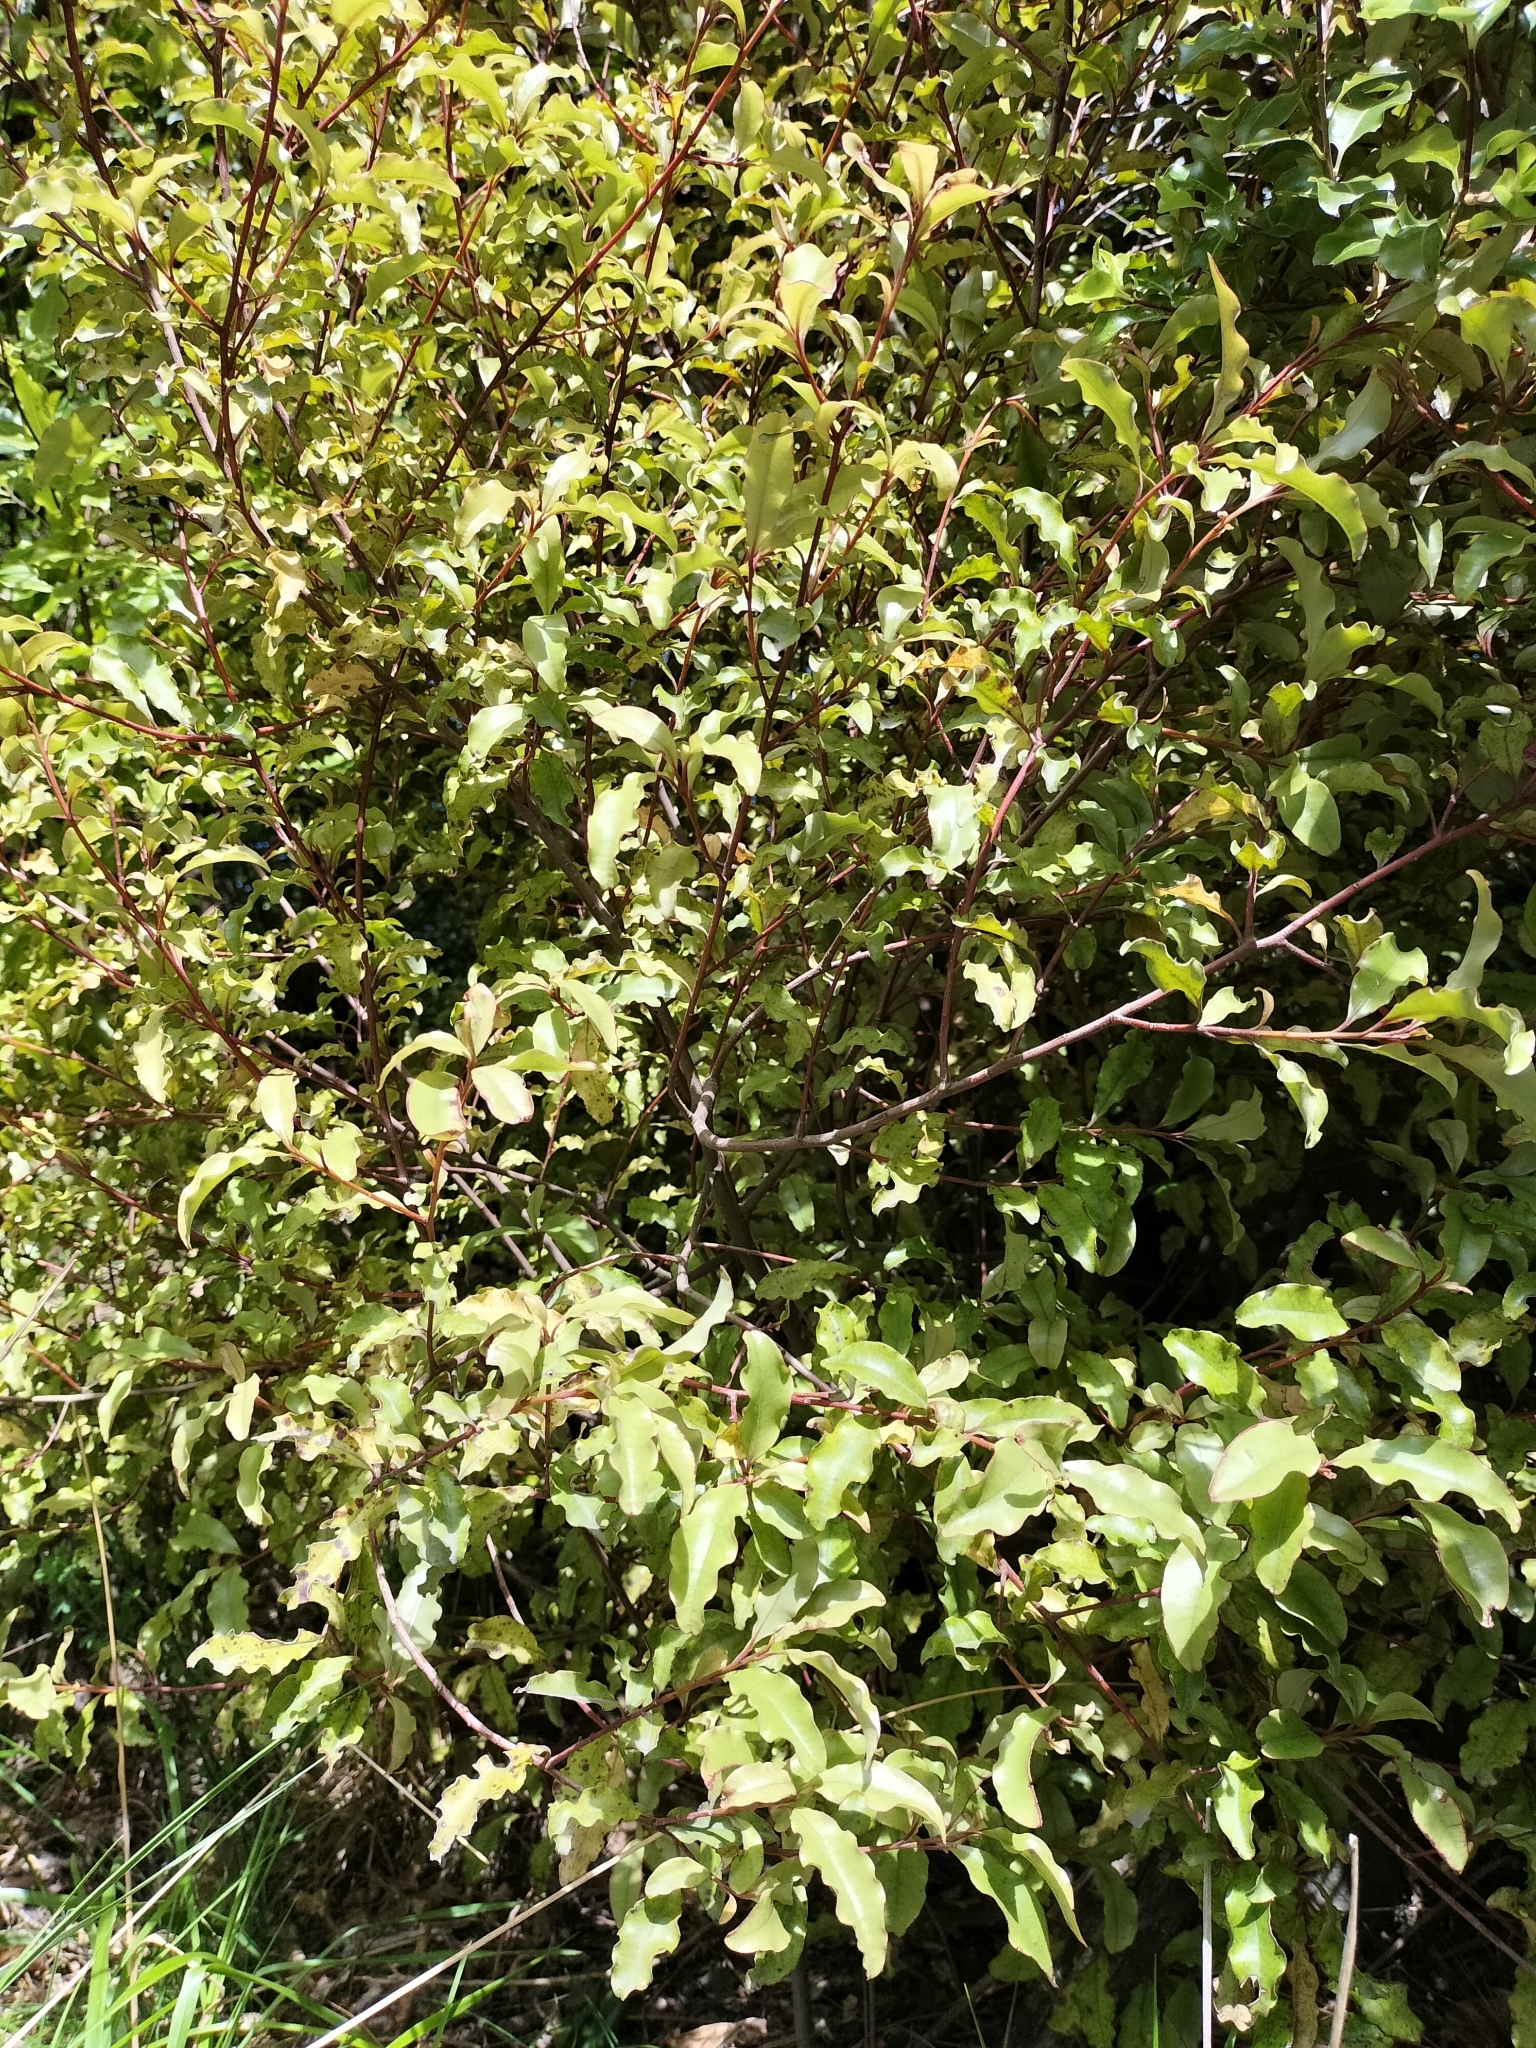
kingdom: Plantae
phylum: Tracheophyta
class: Magnoliopsida
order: Ericales
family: Primulaceae
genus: Myrsine
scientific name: Myrsine australis
